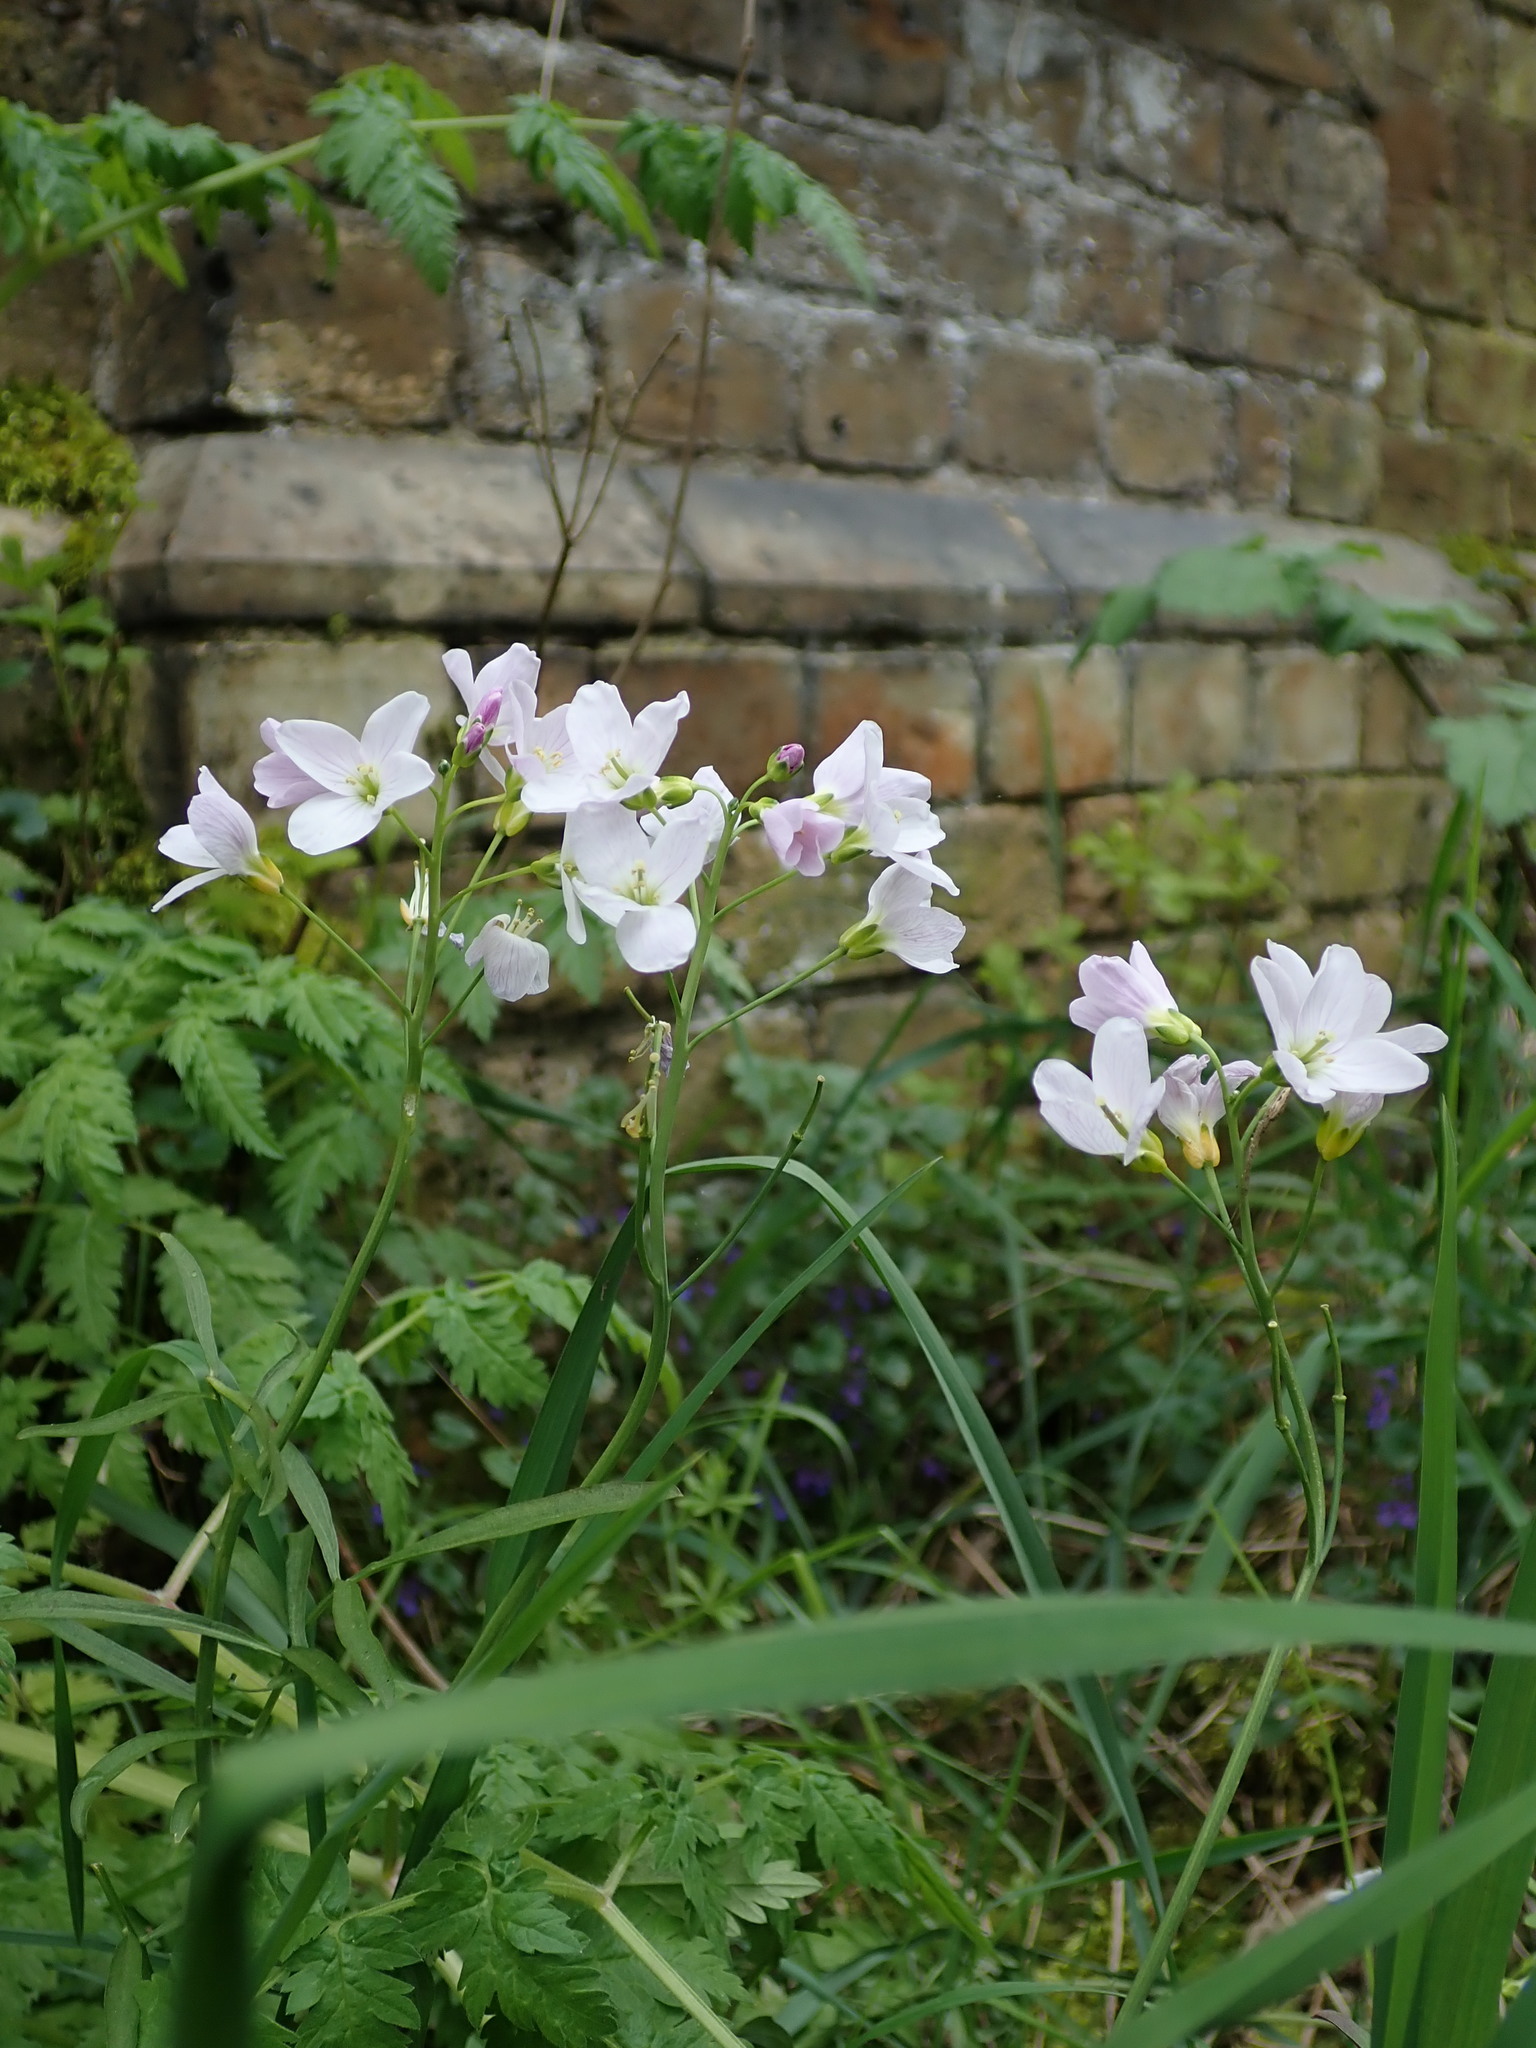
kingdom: Plantae
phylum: Tracheophyta
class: Magnoliopsida
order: Brassicales
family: Brassicaceae
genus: Cardamine
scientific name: Cardamine pratensis
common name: Cuckoo flower
